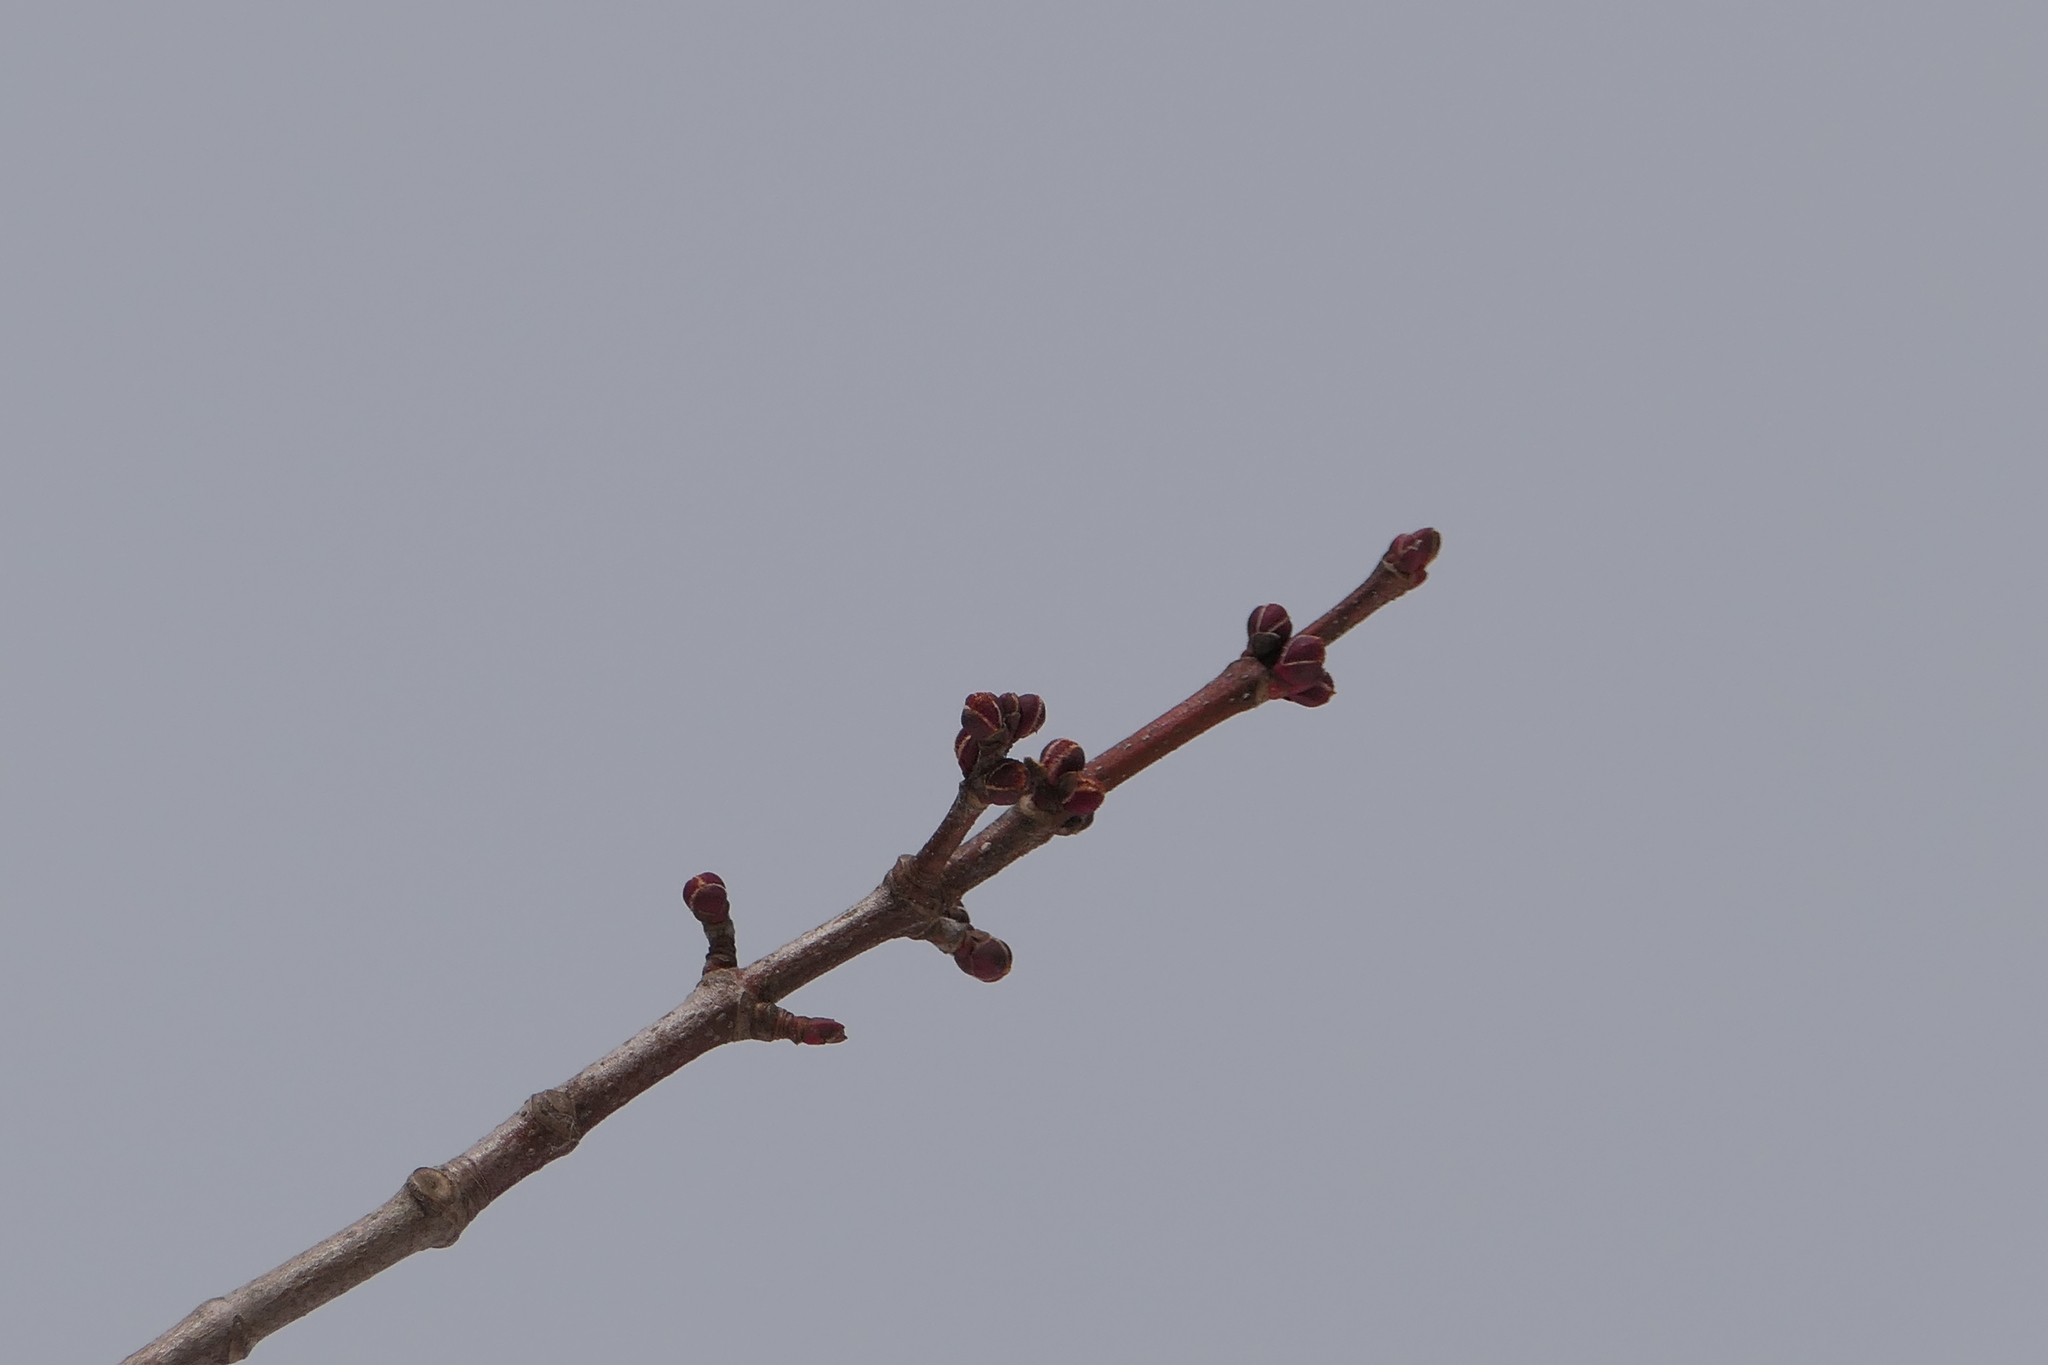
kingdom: Plantae
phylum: Tracheophyta
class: Magnoliopsida
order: Sapindales
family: Sapindaceae
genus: Acer
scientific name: Acer rubrum
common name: Red maple
